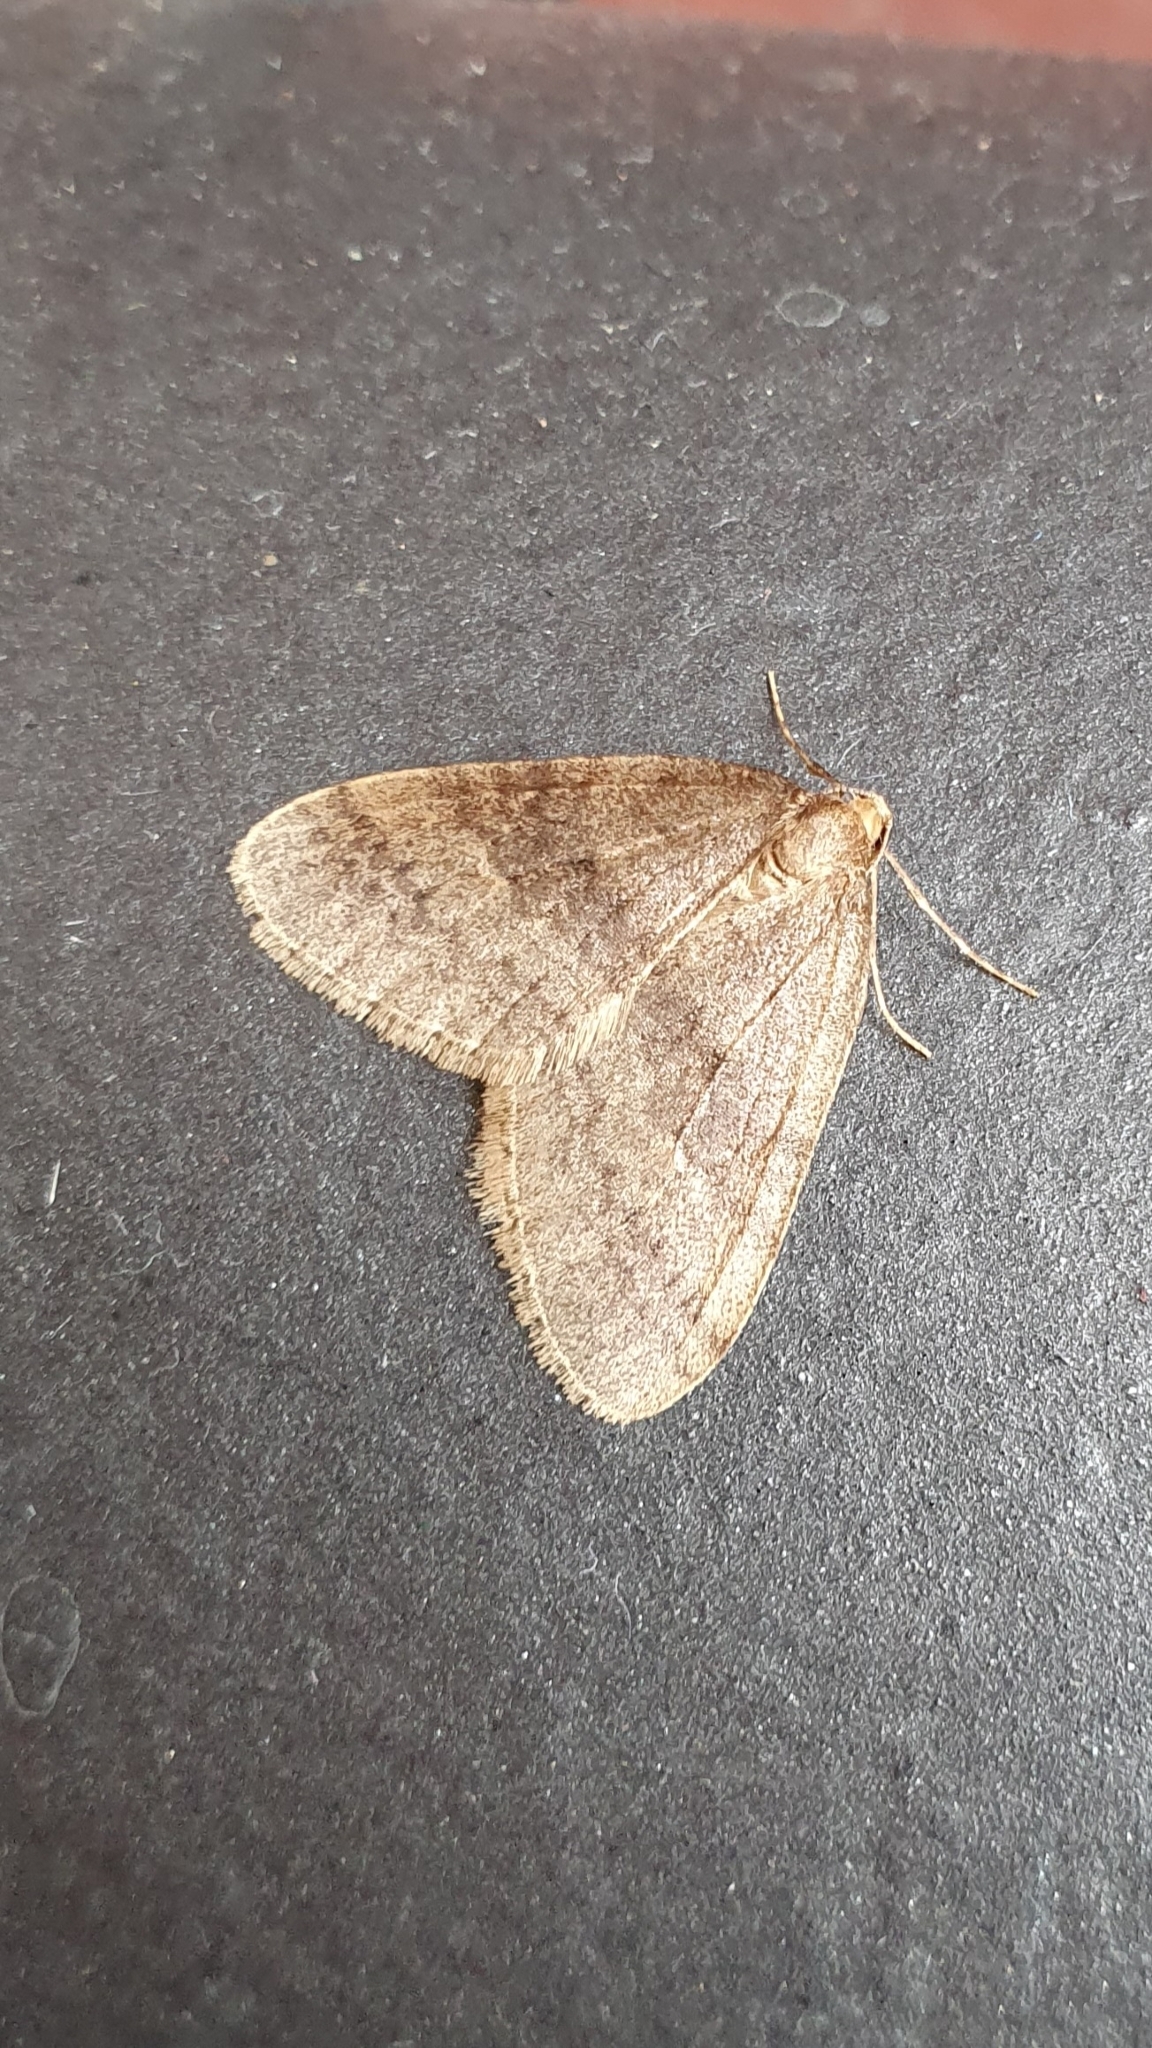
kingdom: Animalia
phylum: Arthropoda
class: Insecta
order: Lepidoptera
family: Geometridae
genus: Operophtera
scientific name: Operophtera brumata
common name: Winter moth
